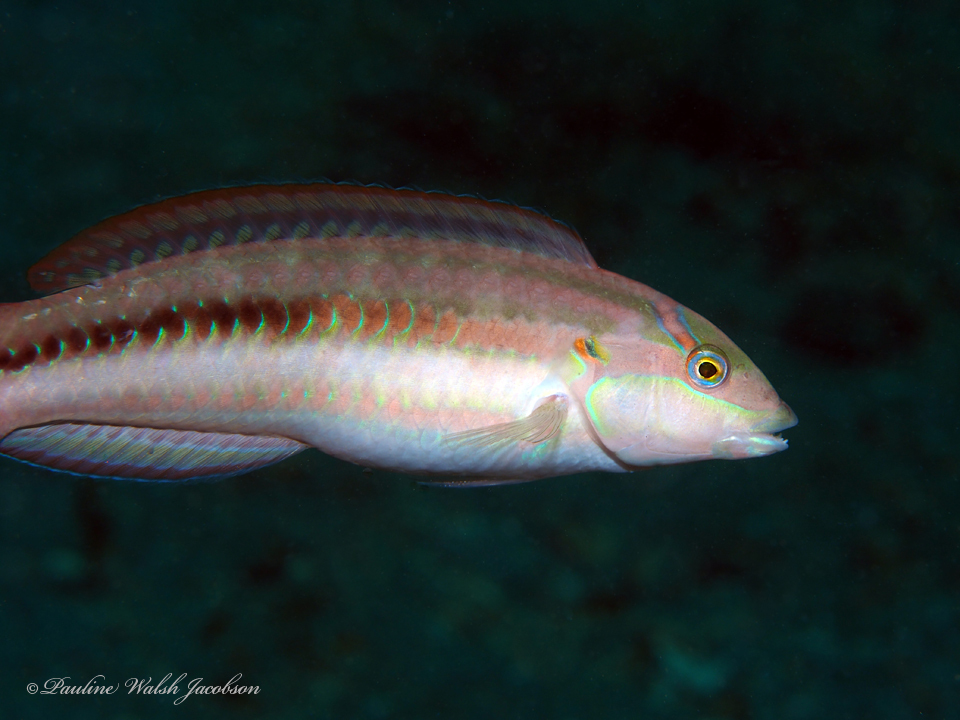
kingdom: Animalia
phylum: Chordata
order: Perciformes
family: Labridae
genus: Halichoeres
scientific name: Halichoeres bivittatus
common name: Slippery dick
